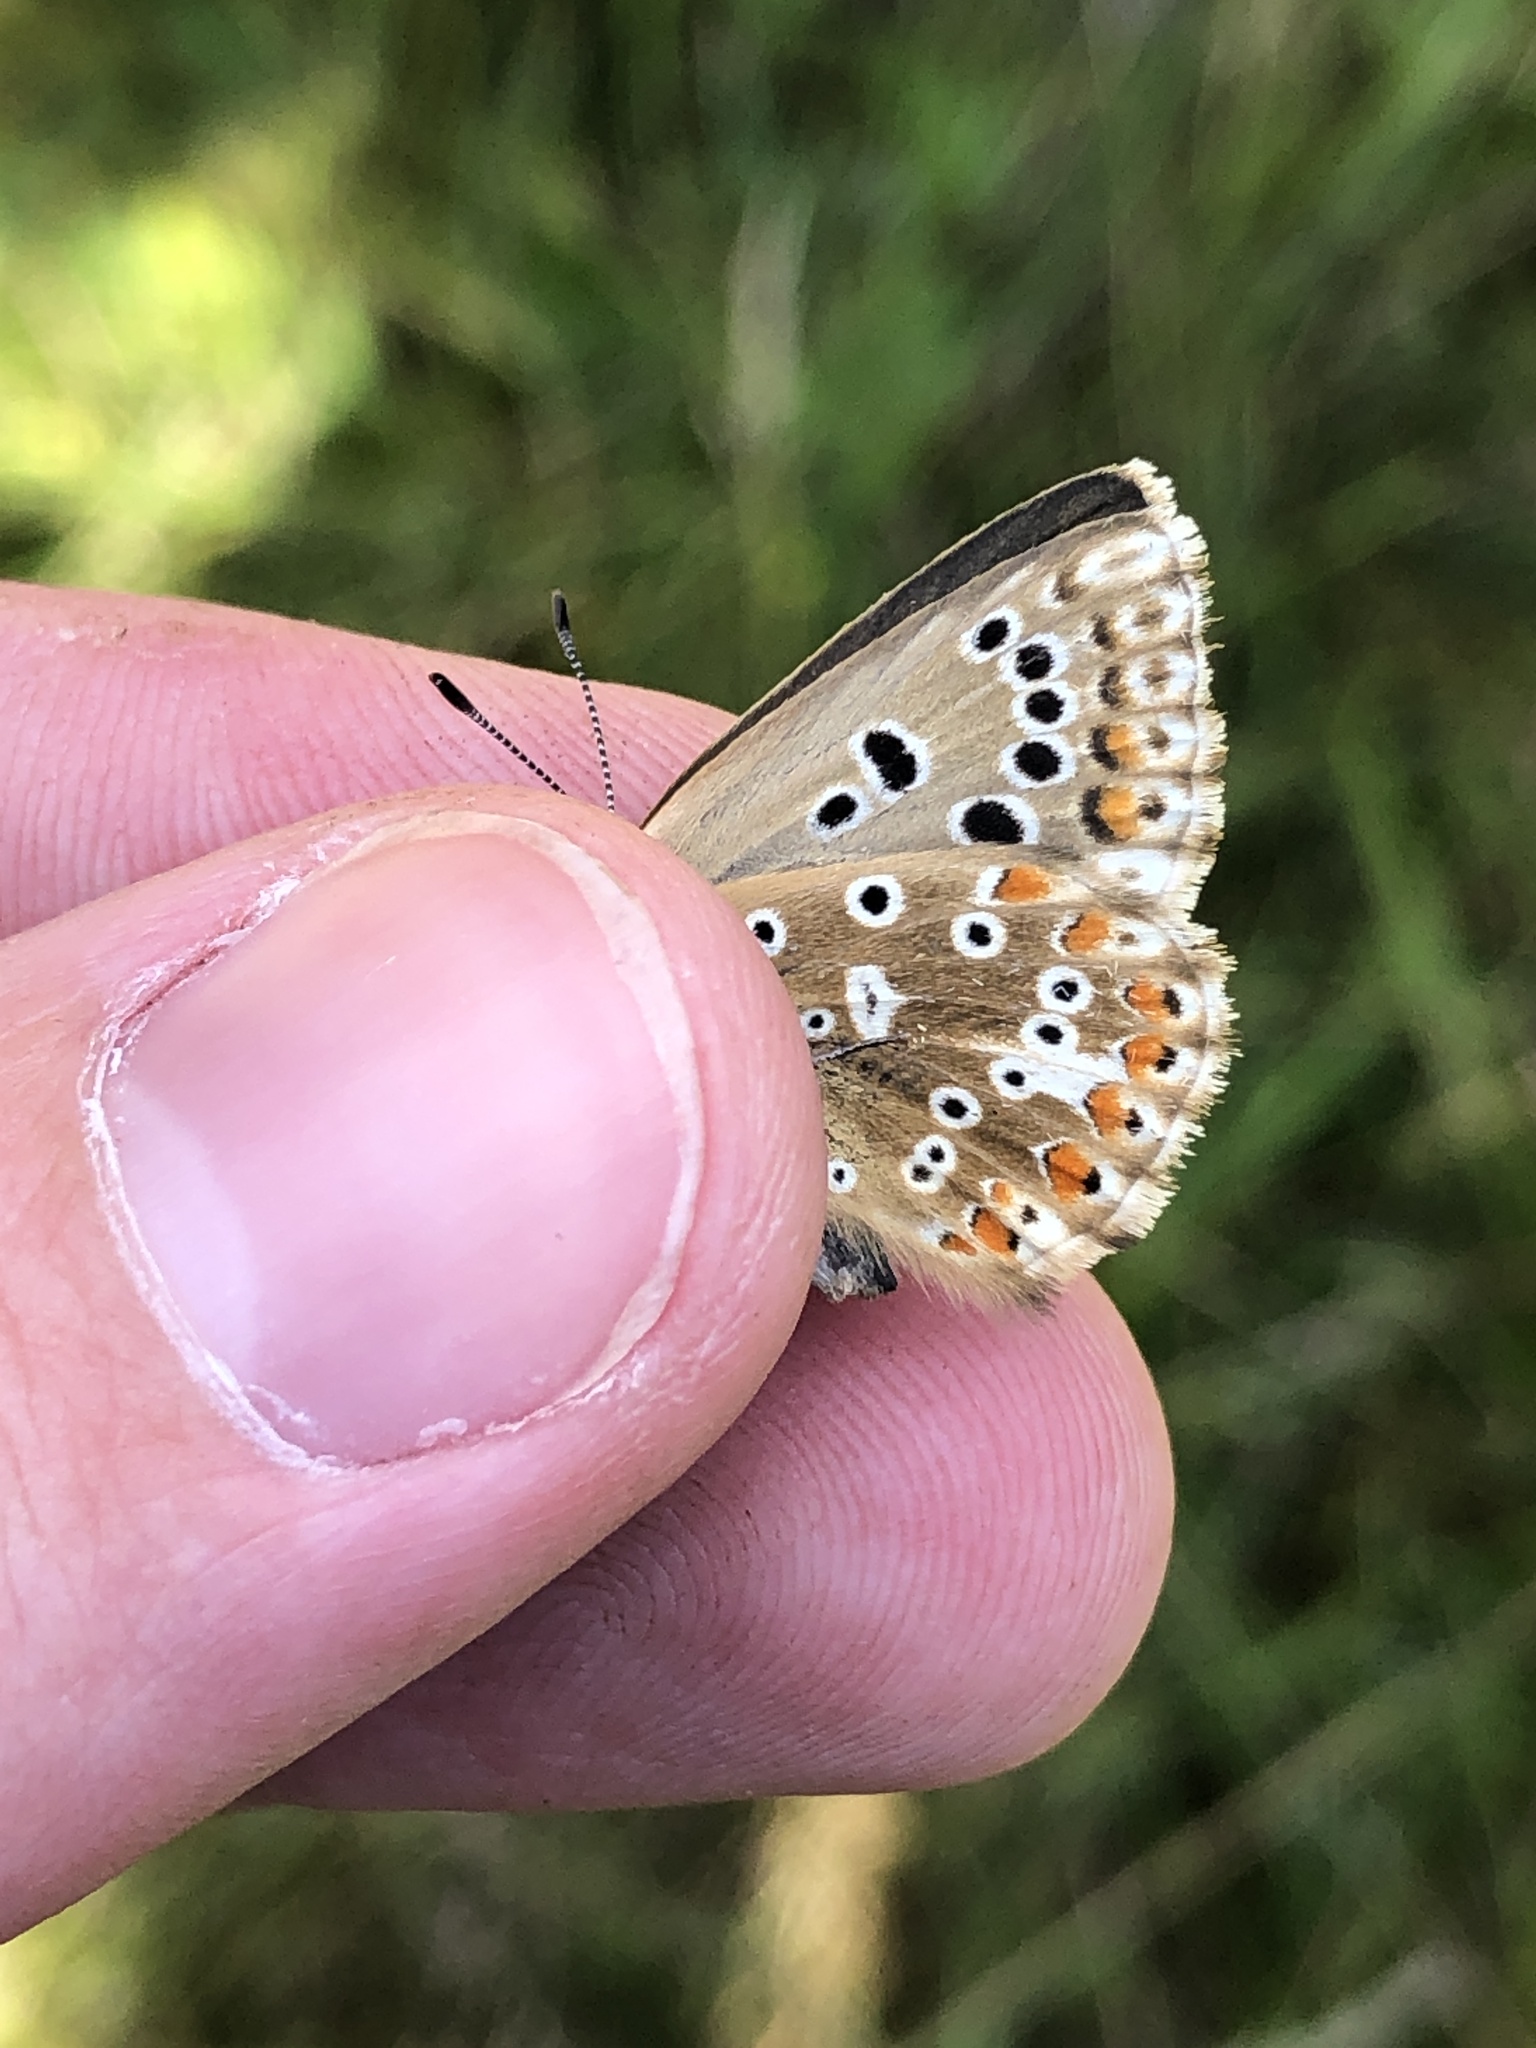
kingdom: Animalia
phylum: Arthropoda
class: Insecta
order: Lepidoptera
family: Lycaenidae
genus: Lysandra
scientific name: Lysandra coridon
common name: Chalkhill blue
